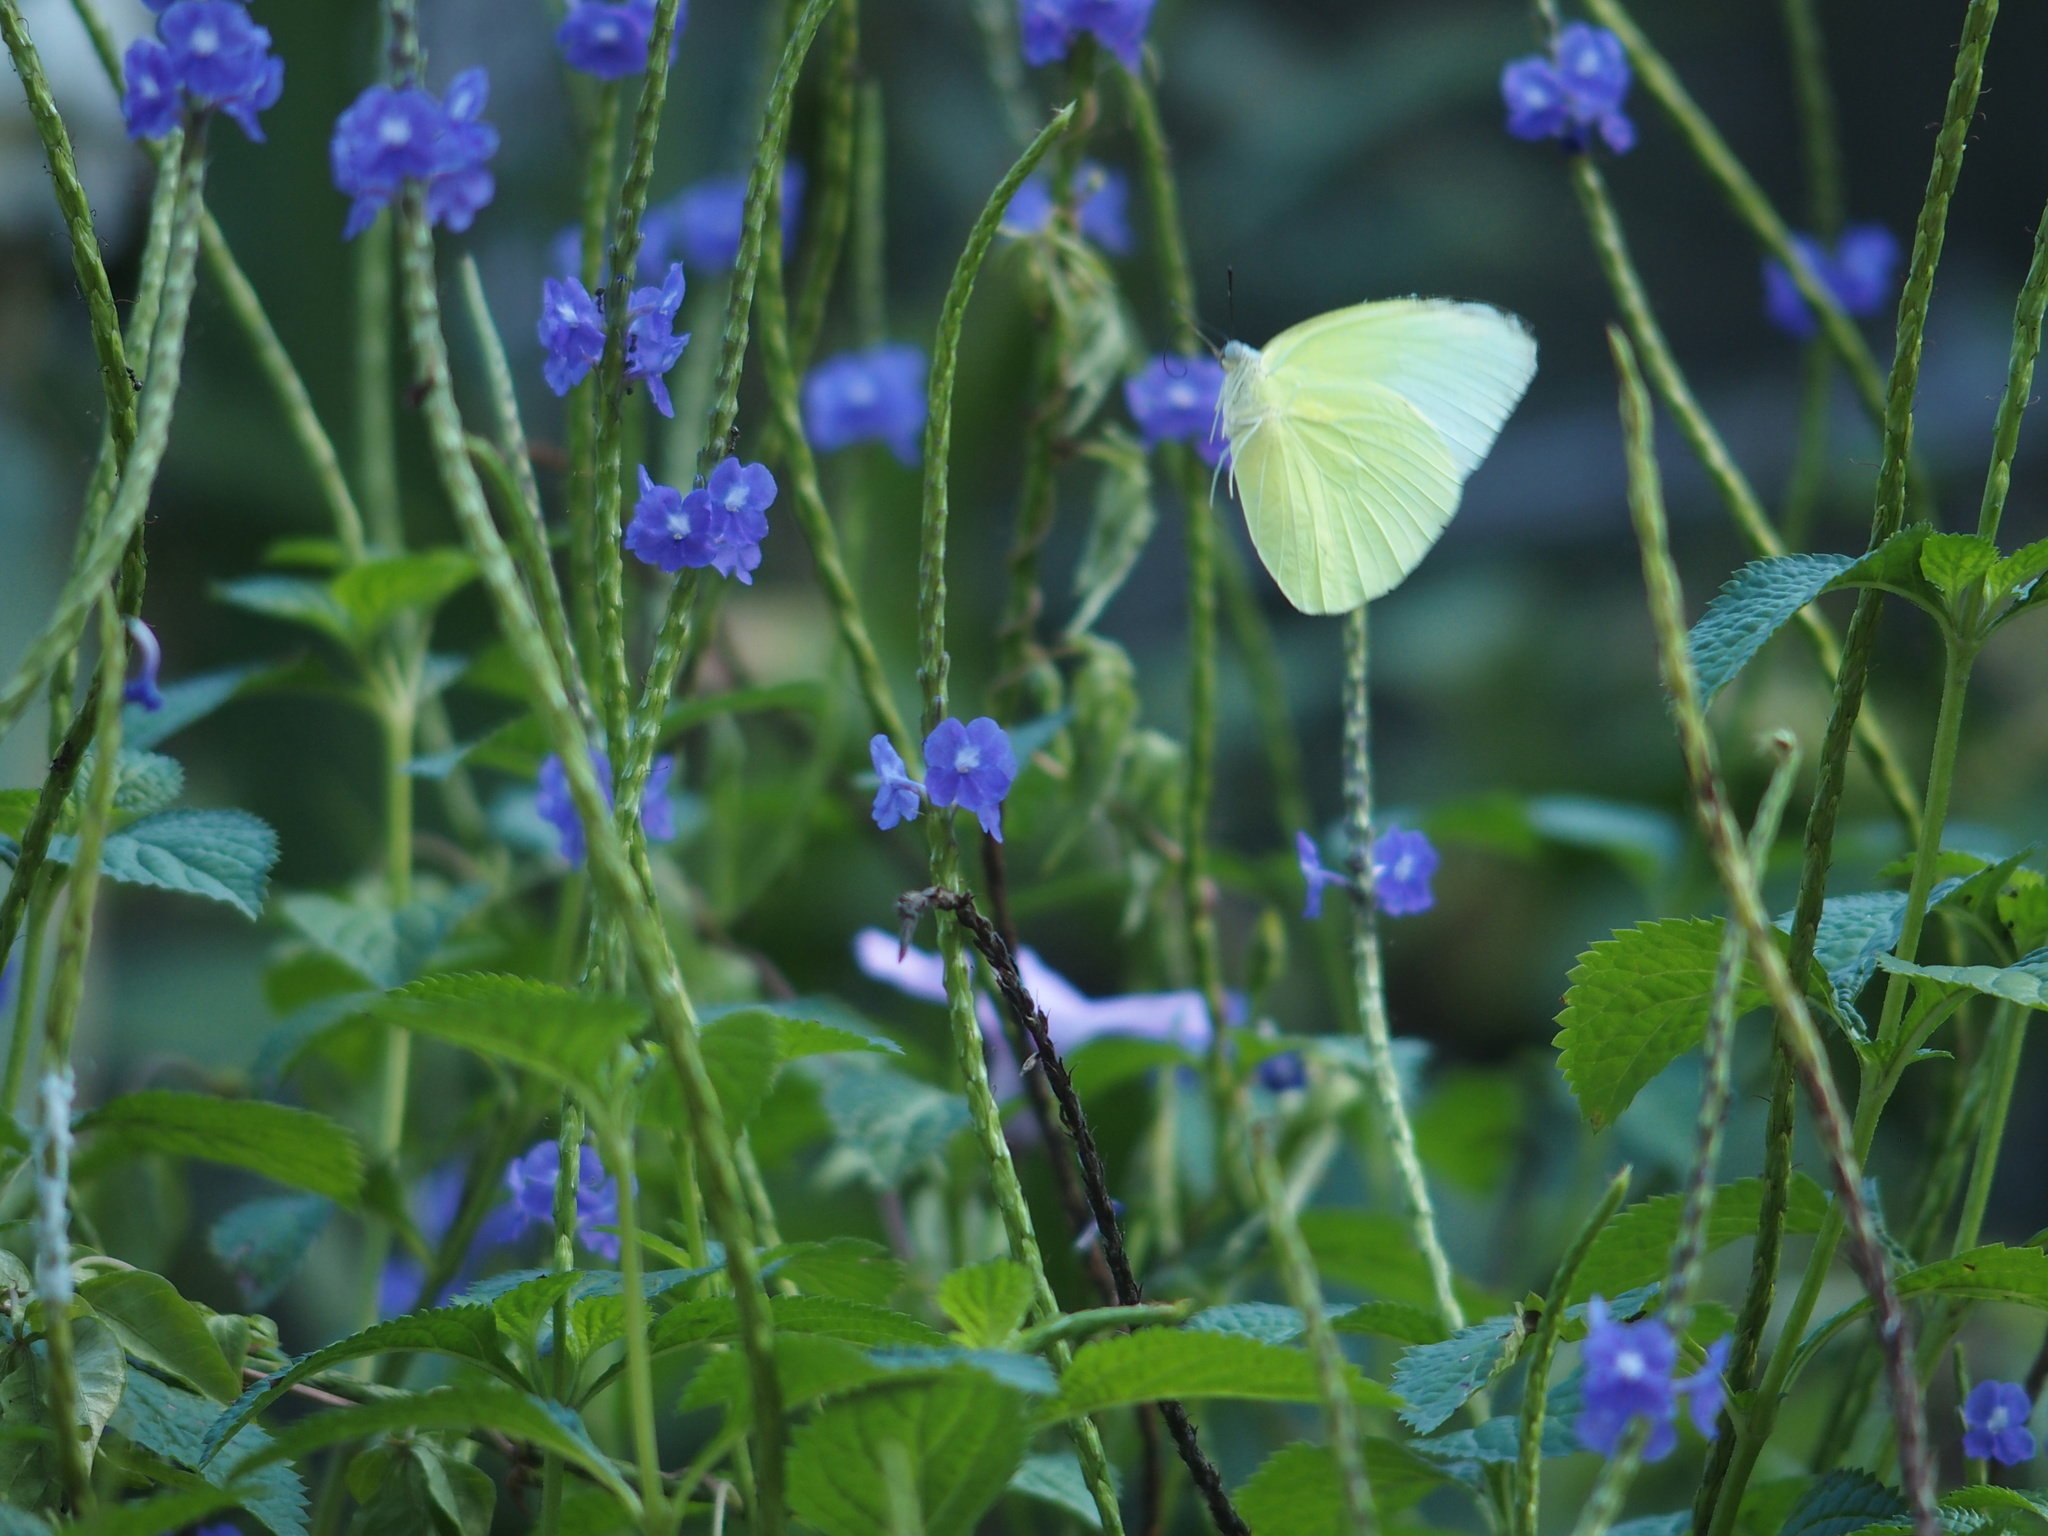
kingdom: Animalia
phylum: Arthropoda
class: Insecta
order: Lepidoptera
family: Pieridae
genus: Catopsilia
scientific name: Catopsilia pomona
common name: Common emigrant
